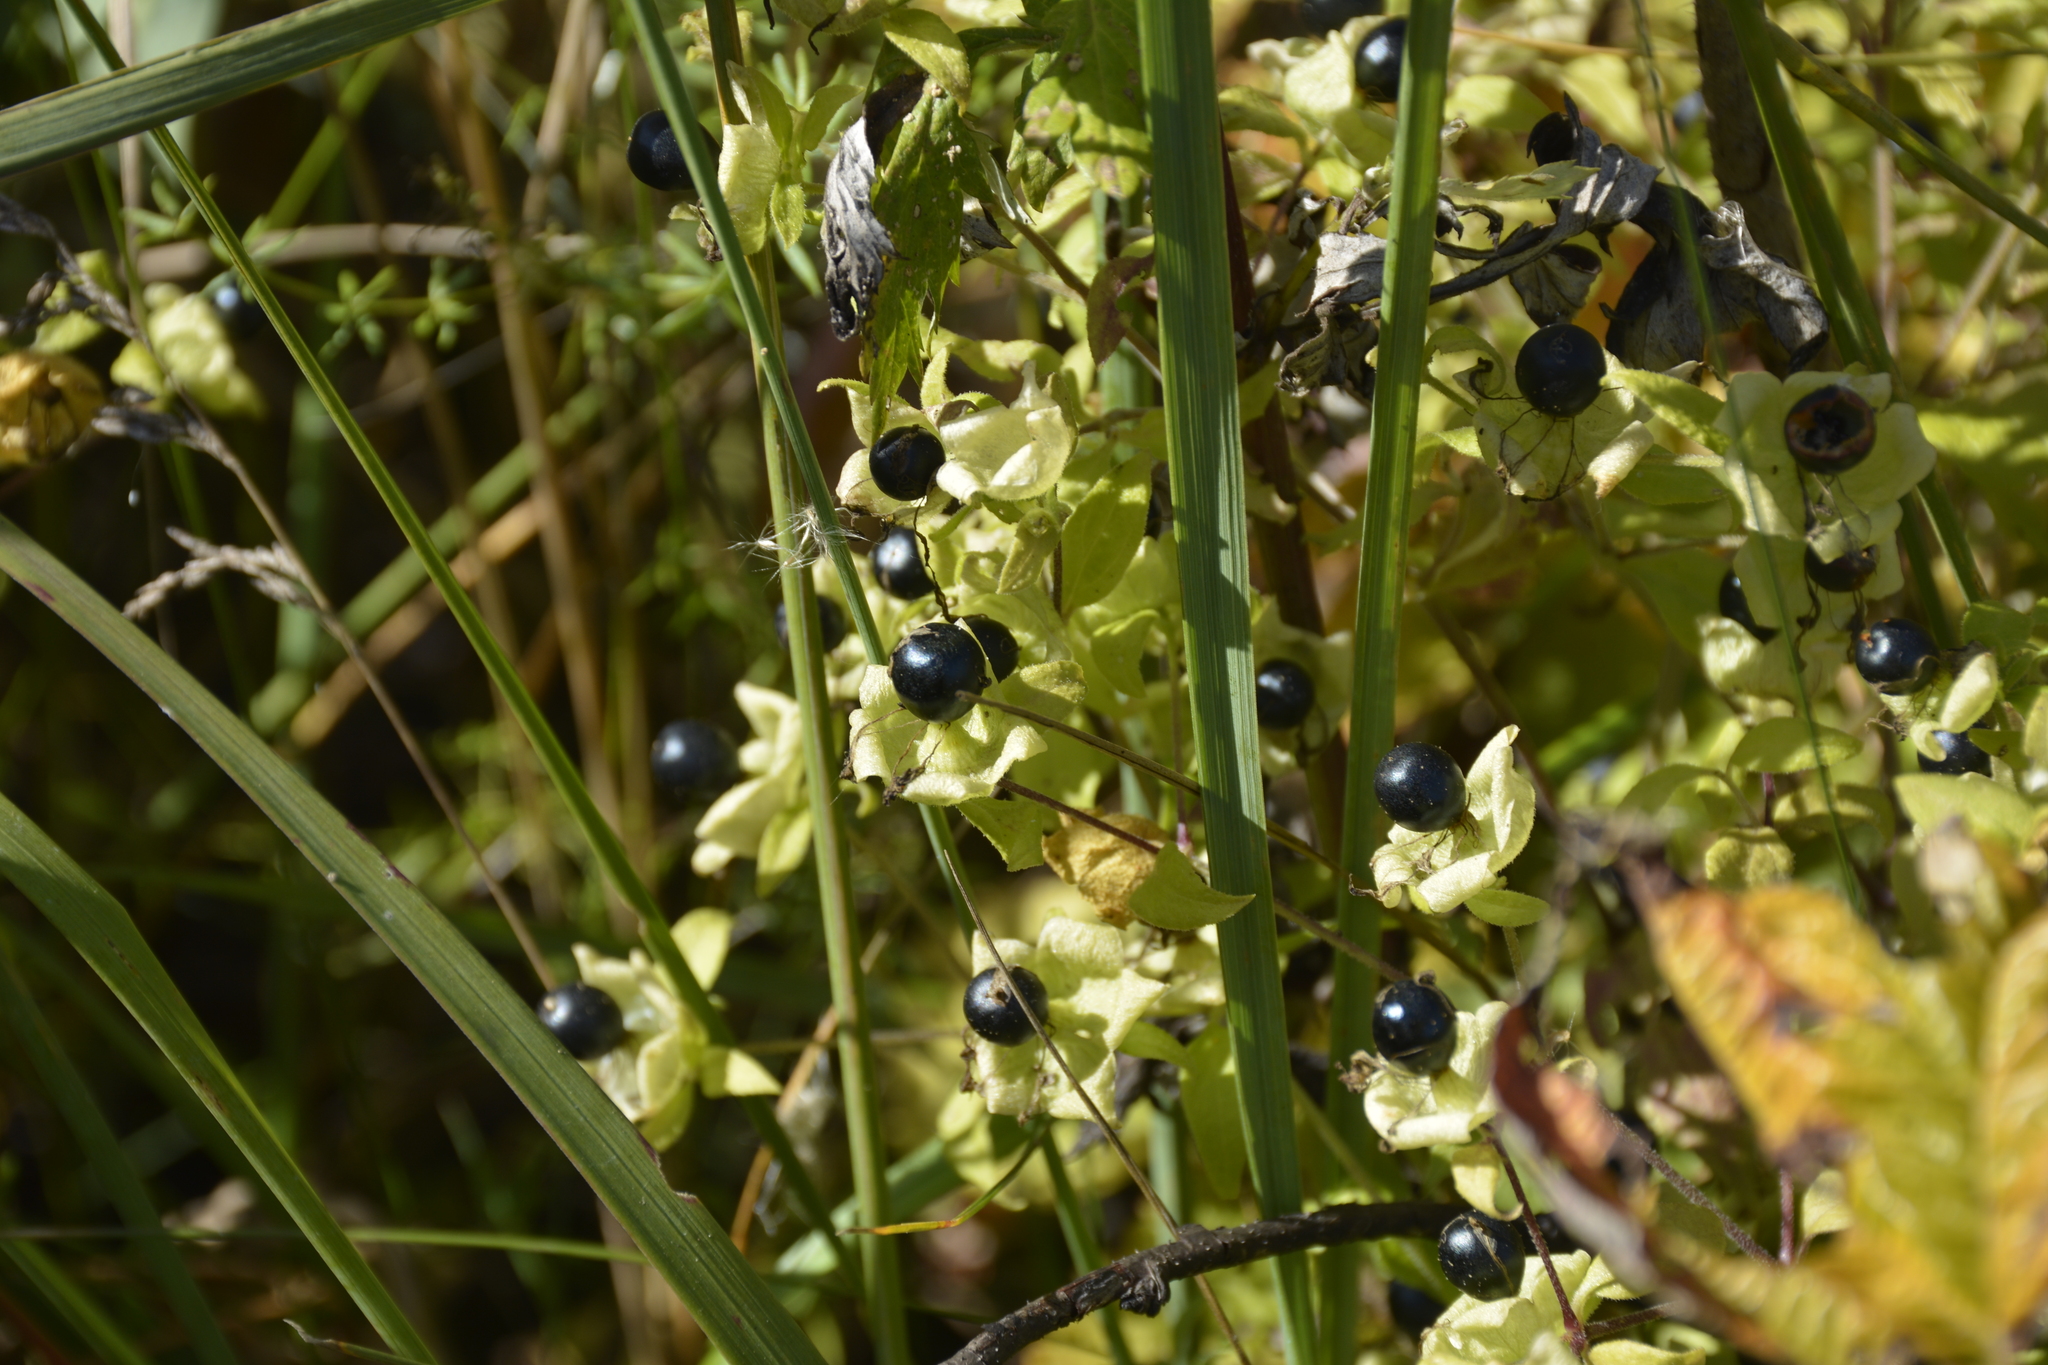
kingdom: Plantae
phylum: Tracheophyta
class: Magnoliopsida
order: Caryophyllales
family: Caryophyllaceae
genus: Silene
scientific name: Silene baccifera
